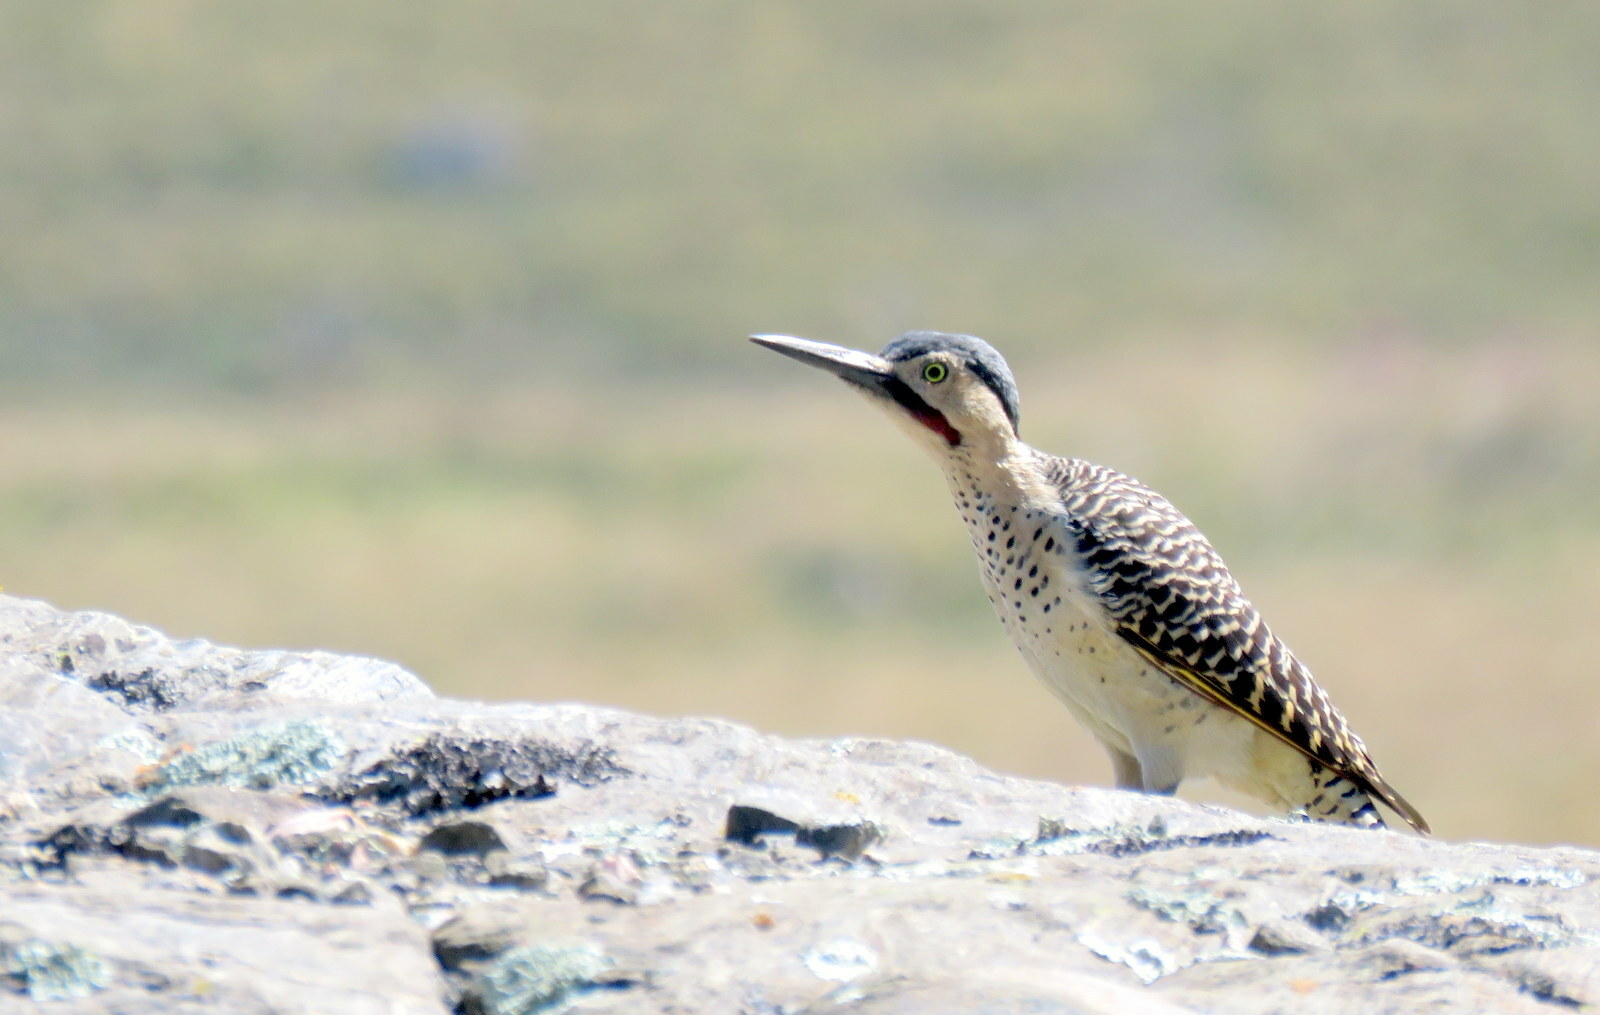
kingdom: Animalia
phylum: Chordata
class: Aves
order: Piciformes
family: Picidae
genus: Colaptes
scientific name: Colaptes rupicola
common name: Andean flicker
